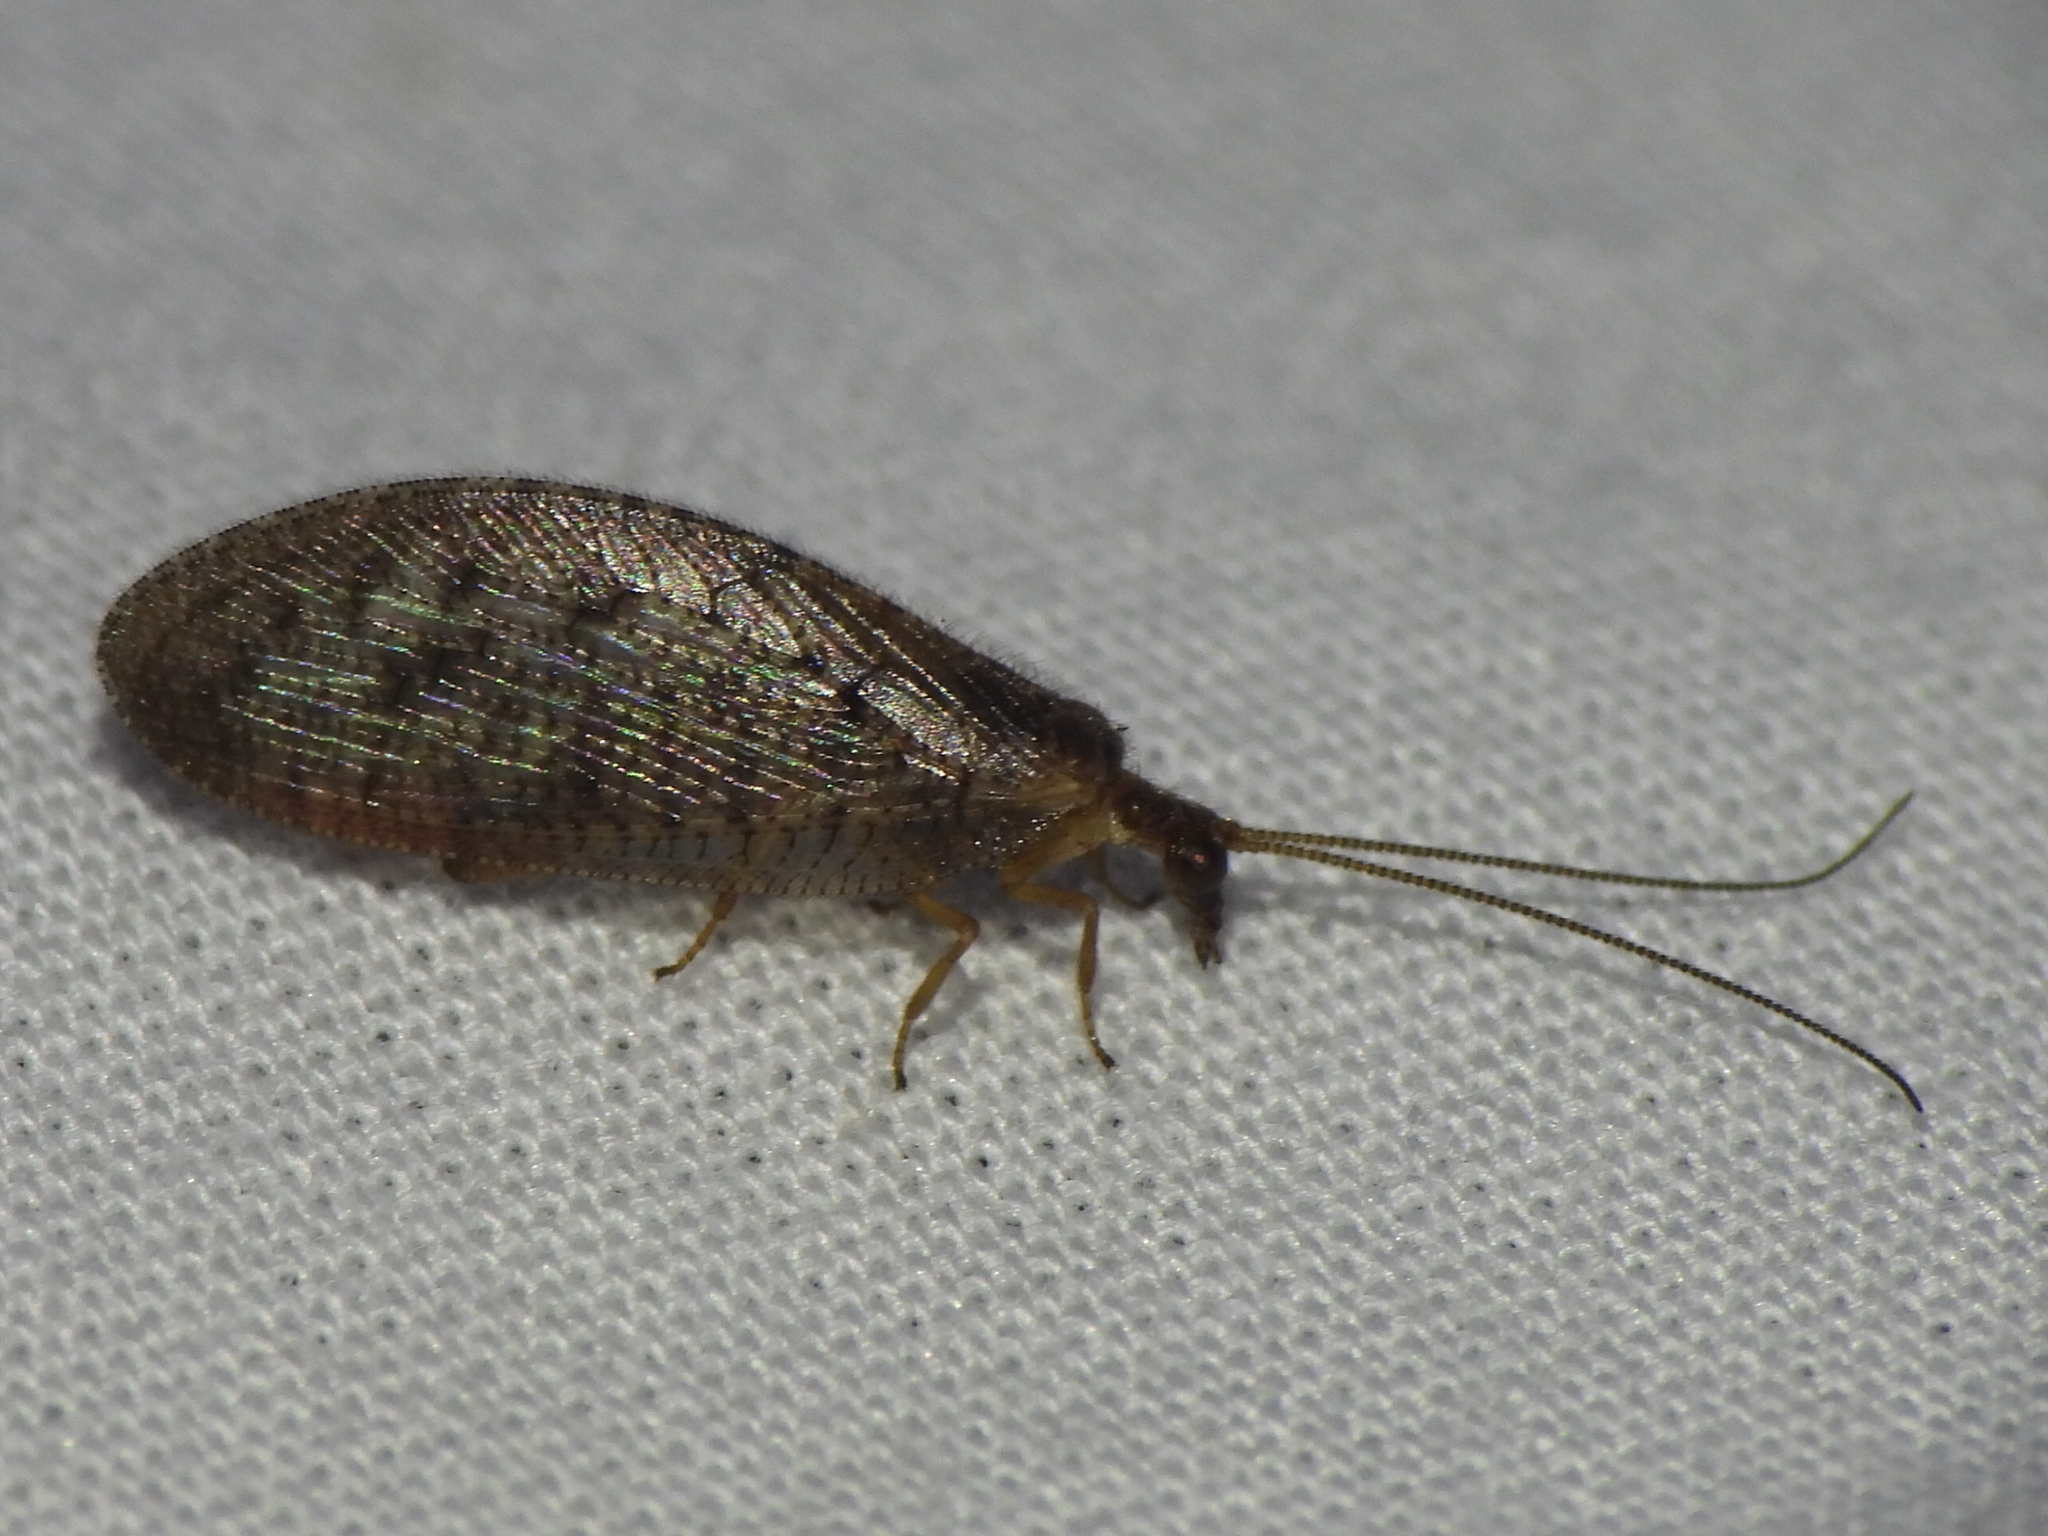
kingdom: Animalia
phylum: Arthropoda
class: Insecta
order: Neuroptera
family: Hemerobiidae
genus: Hemerobius
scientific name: Hemerobius stigma
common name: Brown pine lacewing
